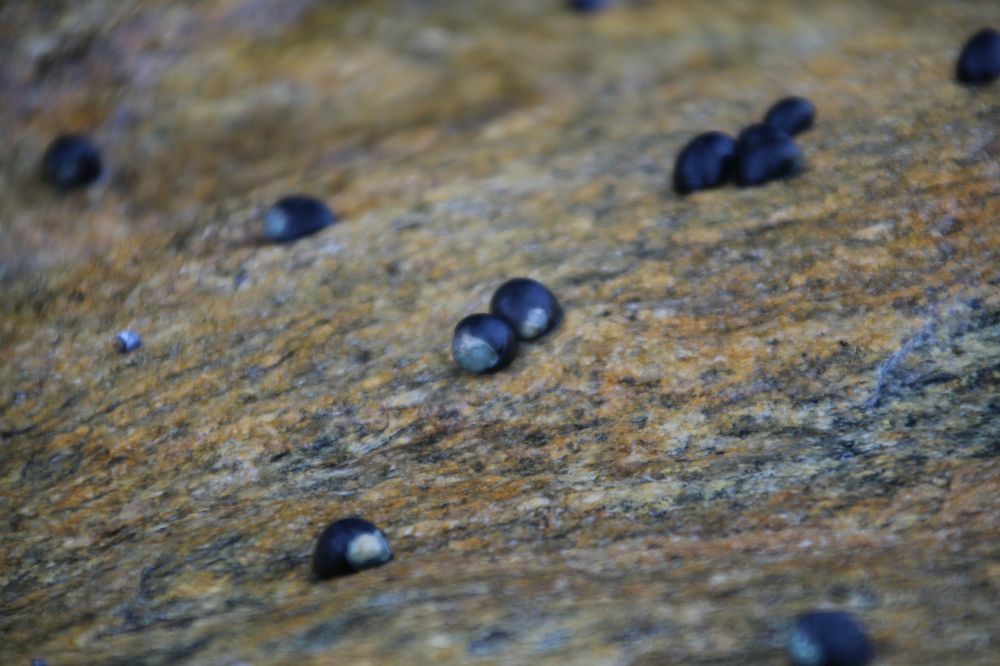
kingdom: Animalia
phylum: Mollusca
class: Gastropoda
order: Cycloneritida
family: Neritidae
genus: Nerita
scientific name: Nerita atramentosa
